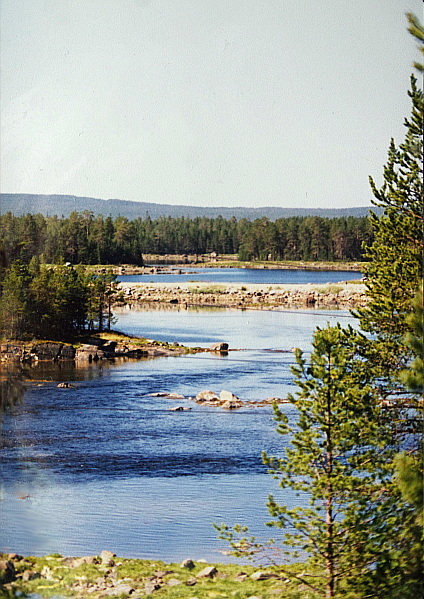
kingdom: Plantae
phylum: Tracheophyta
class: Pinopsida
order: Pinales
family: Pinaceae
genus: Pinus
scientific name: Pinus sylvestris
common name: Scots pine
